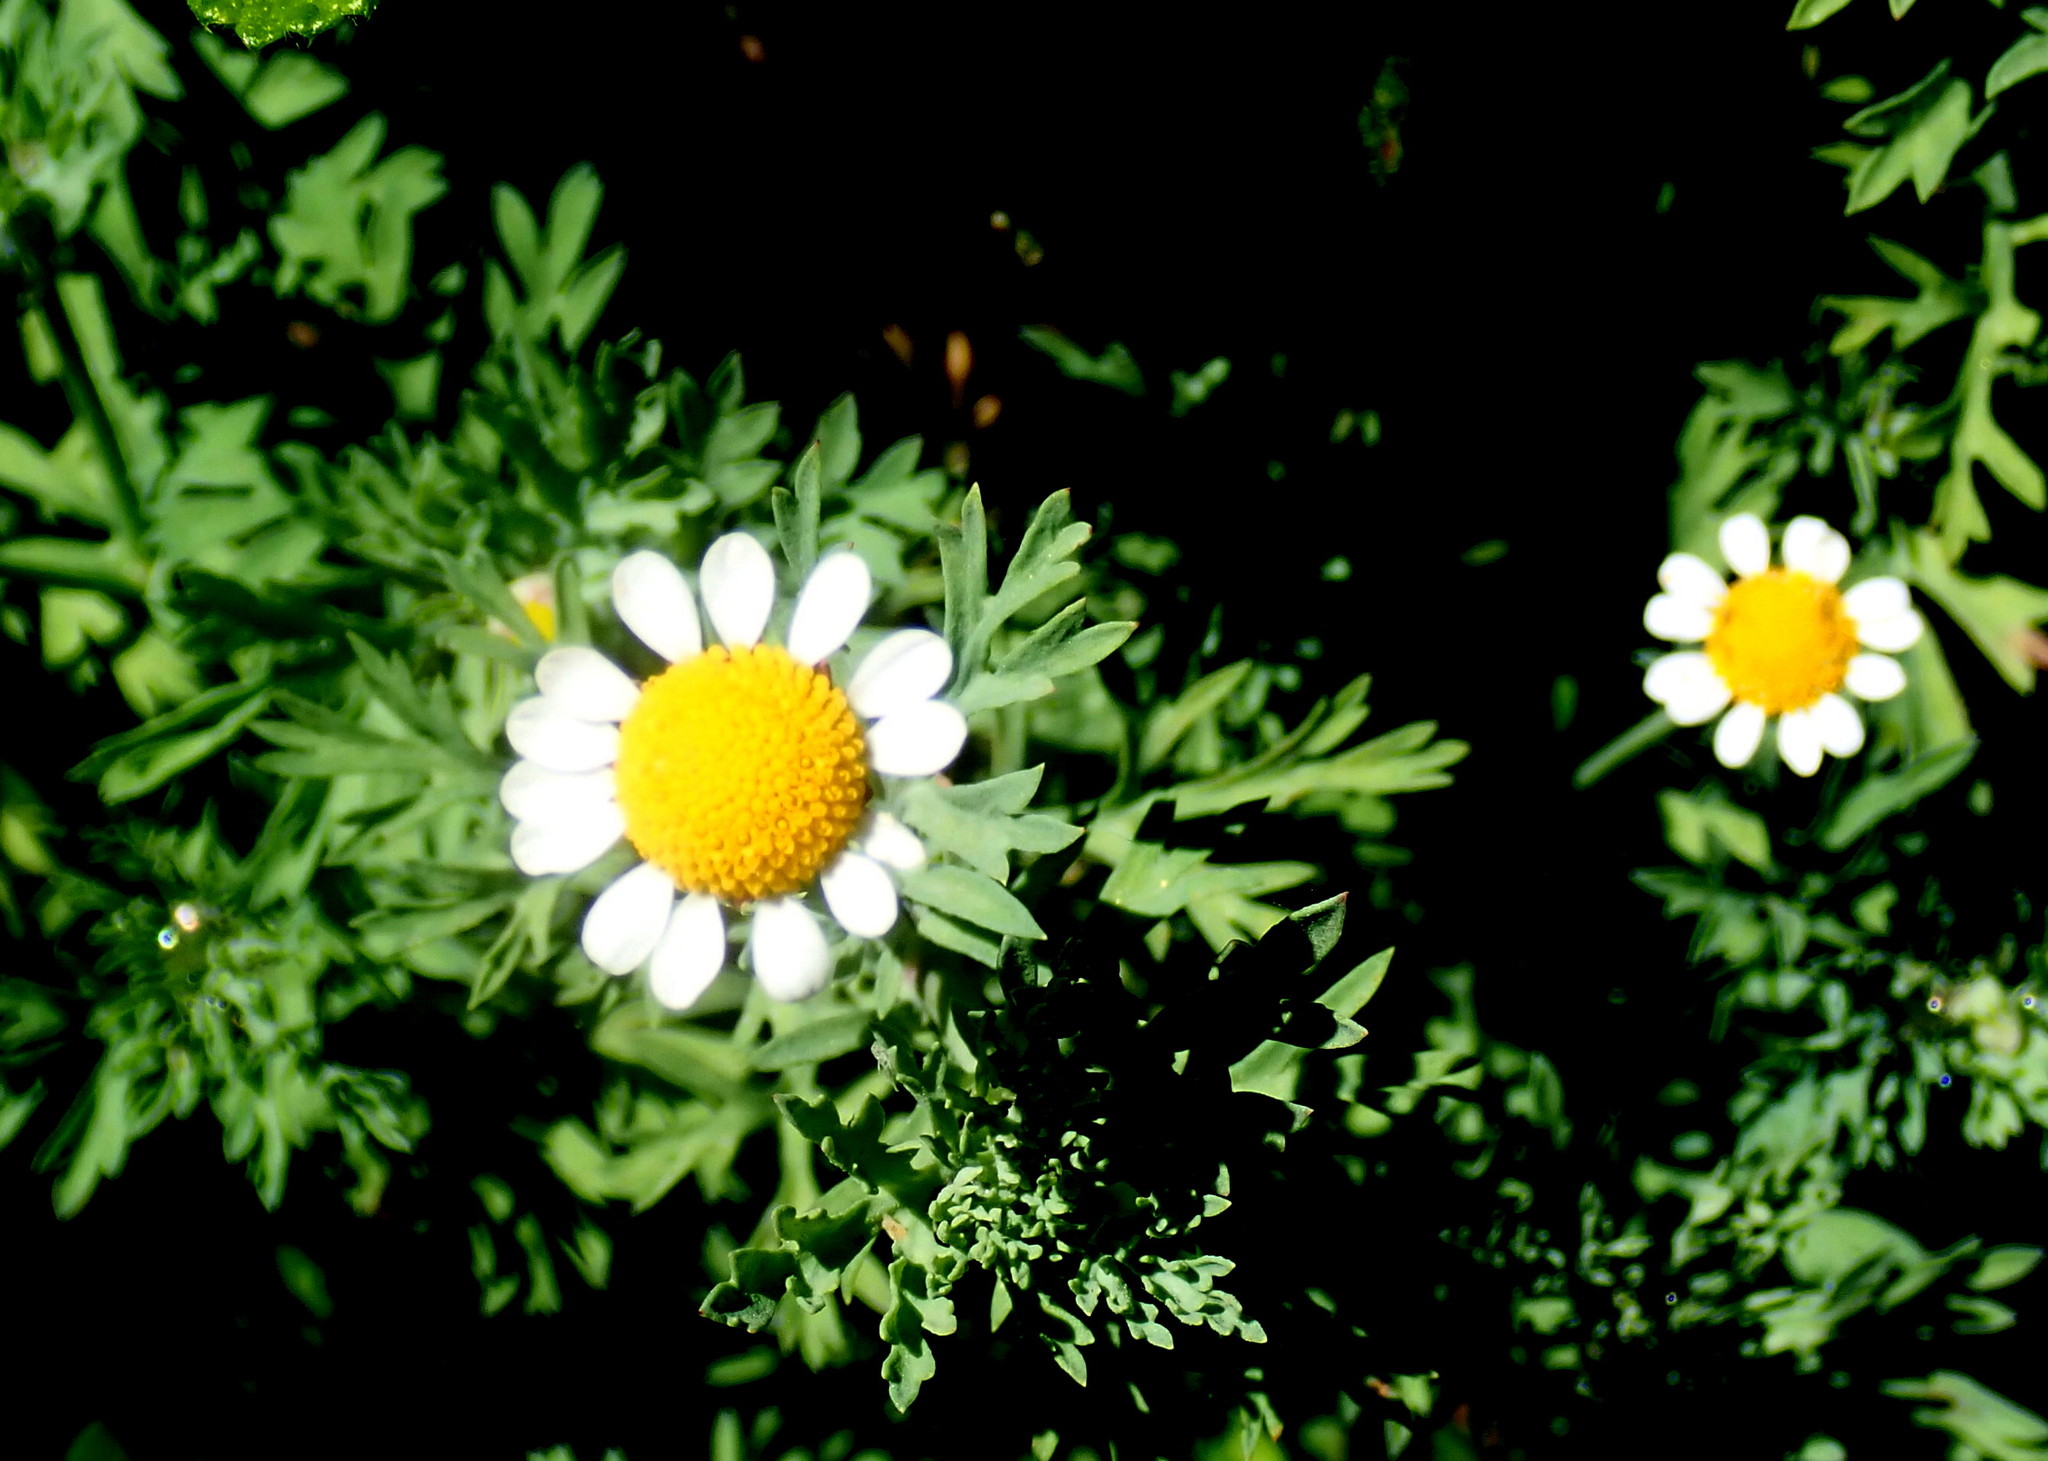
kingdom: Plantae
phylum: Tracheophyta
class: Magnoliopsida
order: Asterales
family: Asteraceae
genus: Cotula
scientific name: Cotula nigellifolia
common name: Staggerweed
